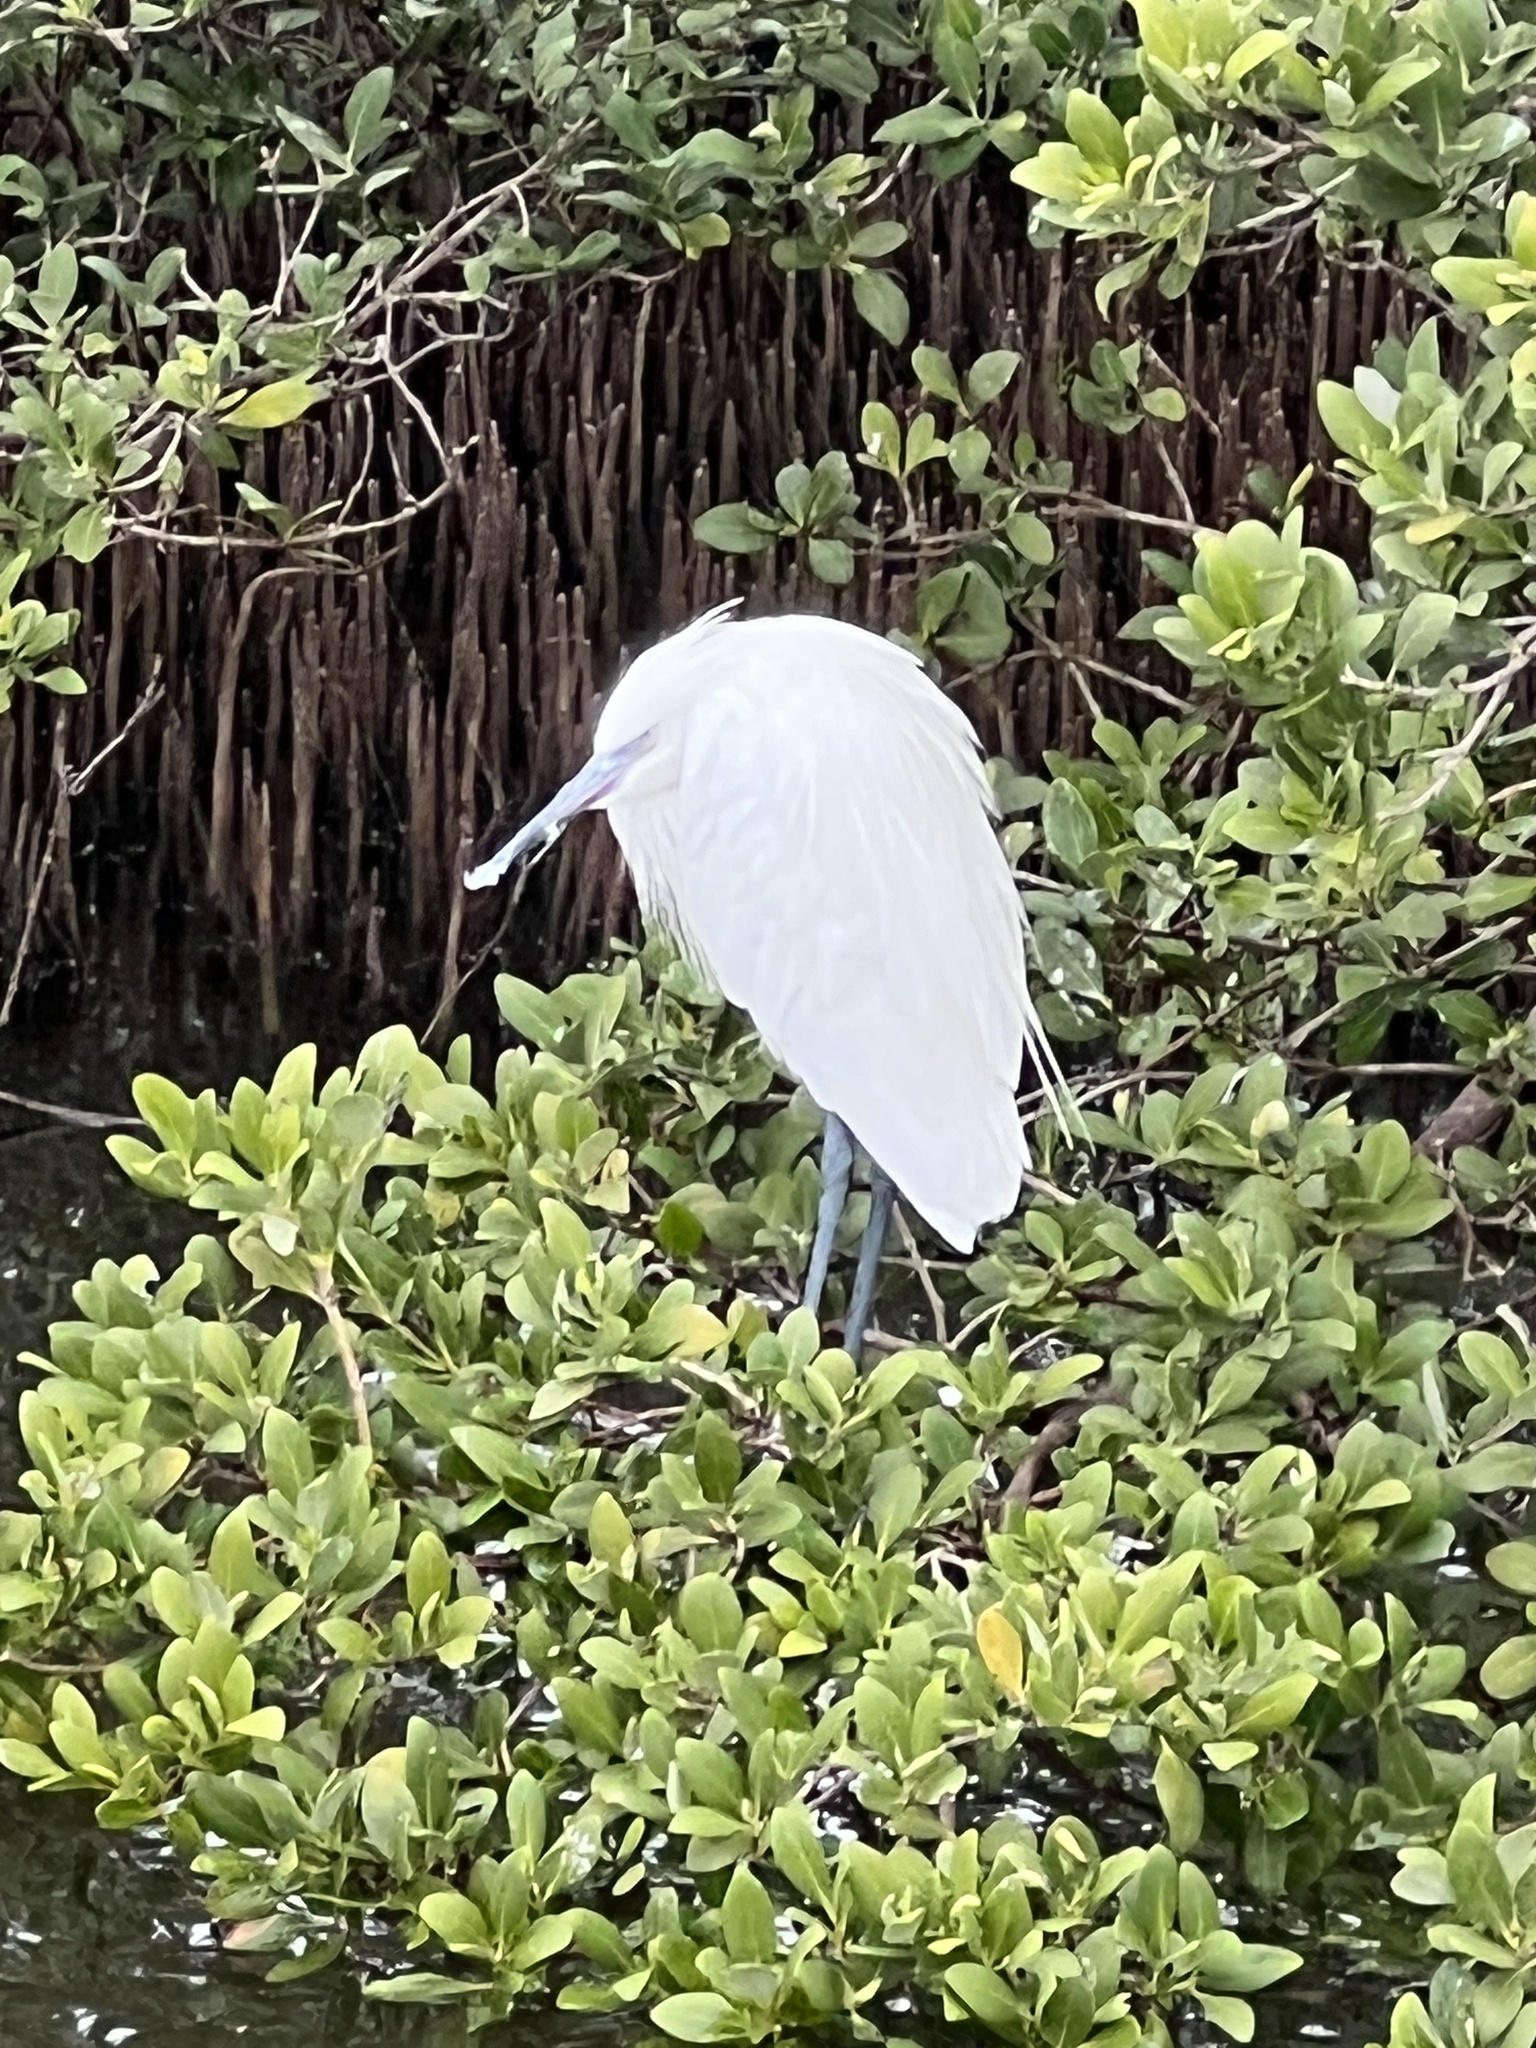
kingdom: Animalia
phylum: Chordata
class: Aves
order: Pelecaniformes
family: Ardeidae
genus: Egretta
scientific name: Egretta rufescens
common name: Reddish egret
